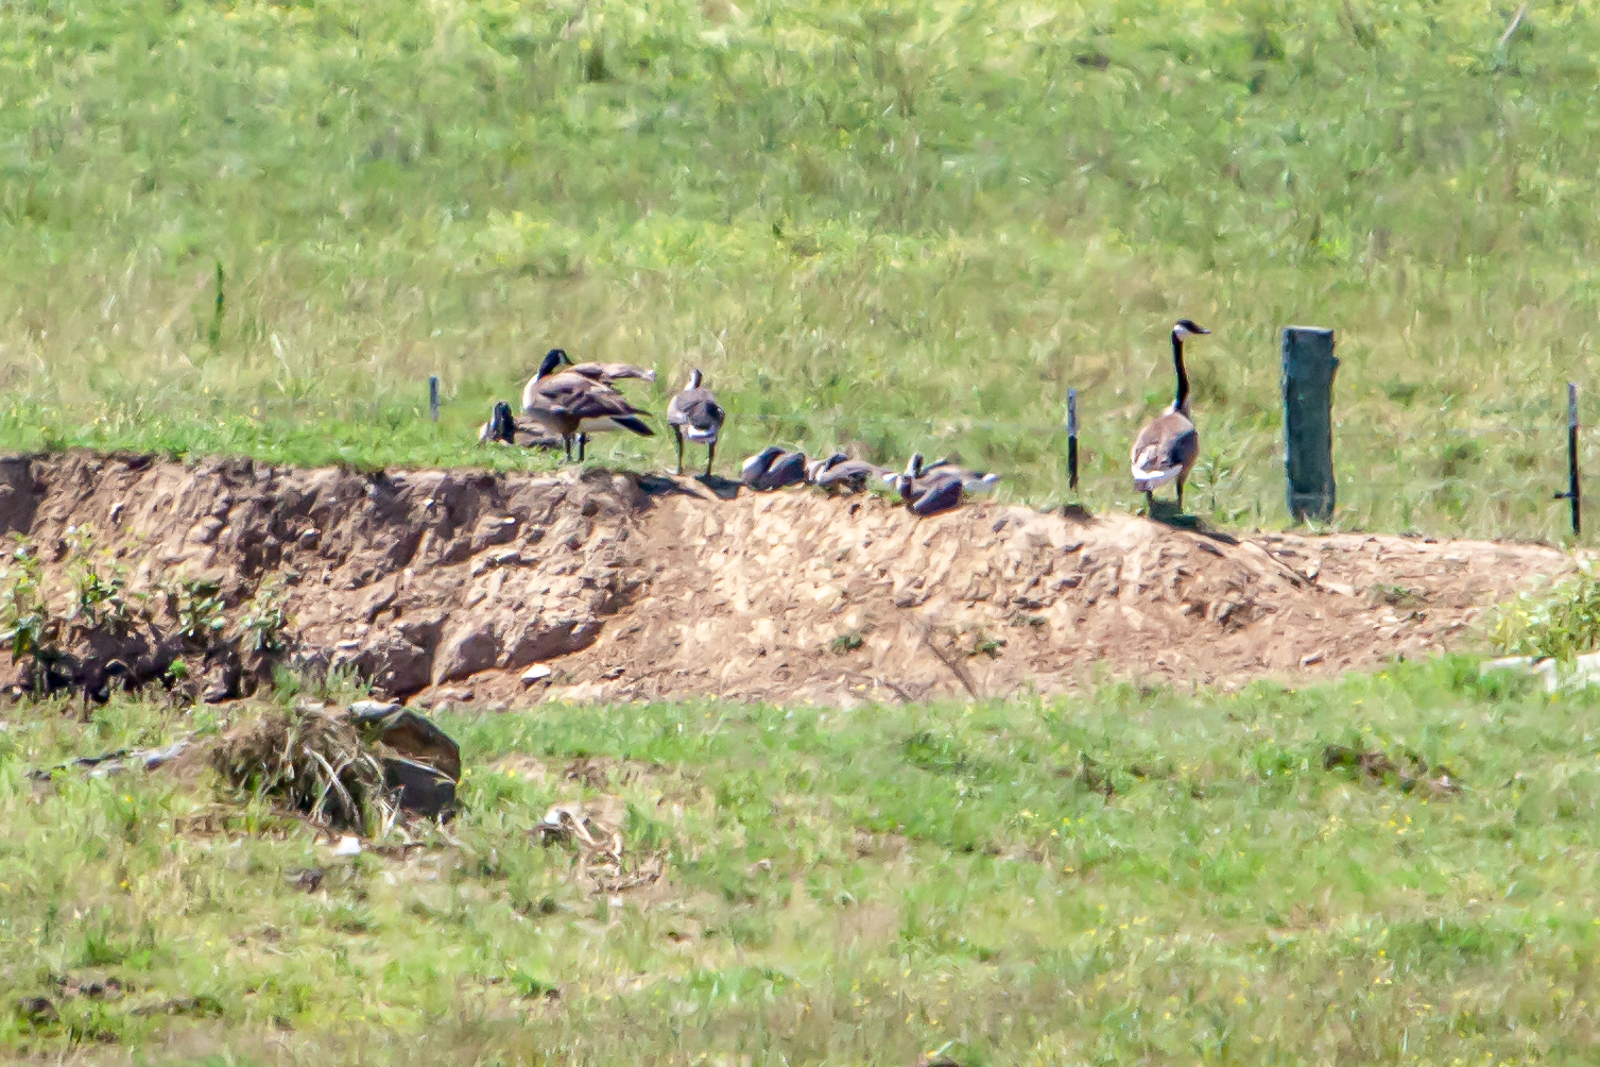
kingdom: Animalia
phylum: Chordata
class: Aves
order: Anseriformes
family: Anatidae
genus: Branta
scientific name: Branta canadensis
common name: Canada goose
